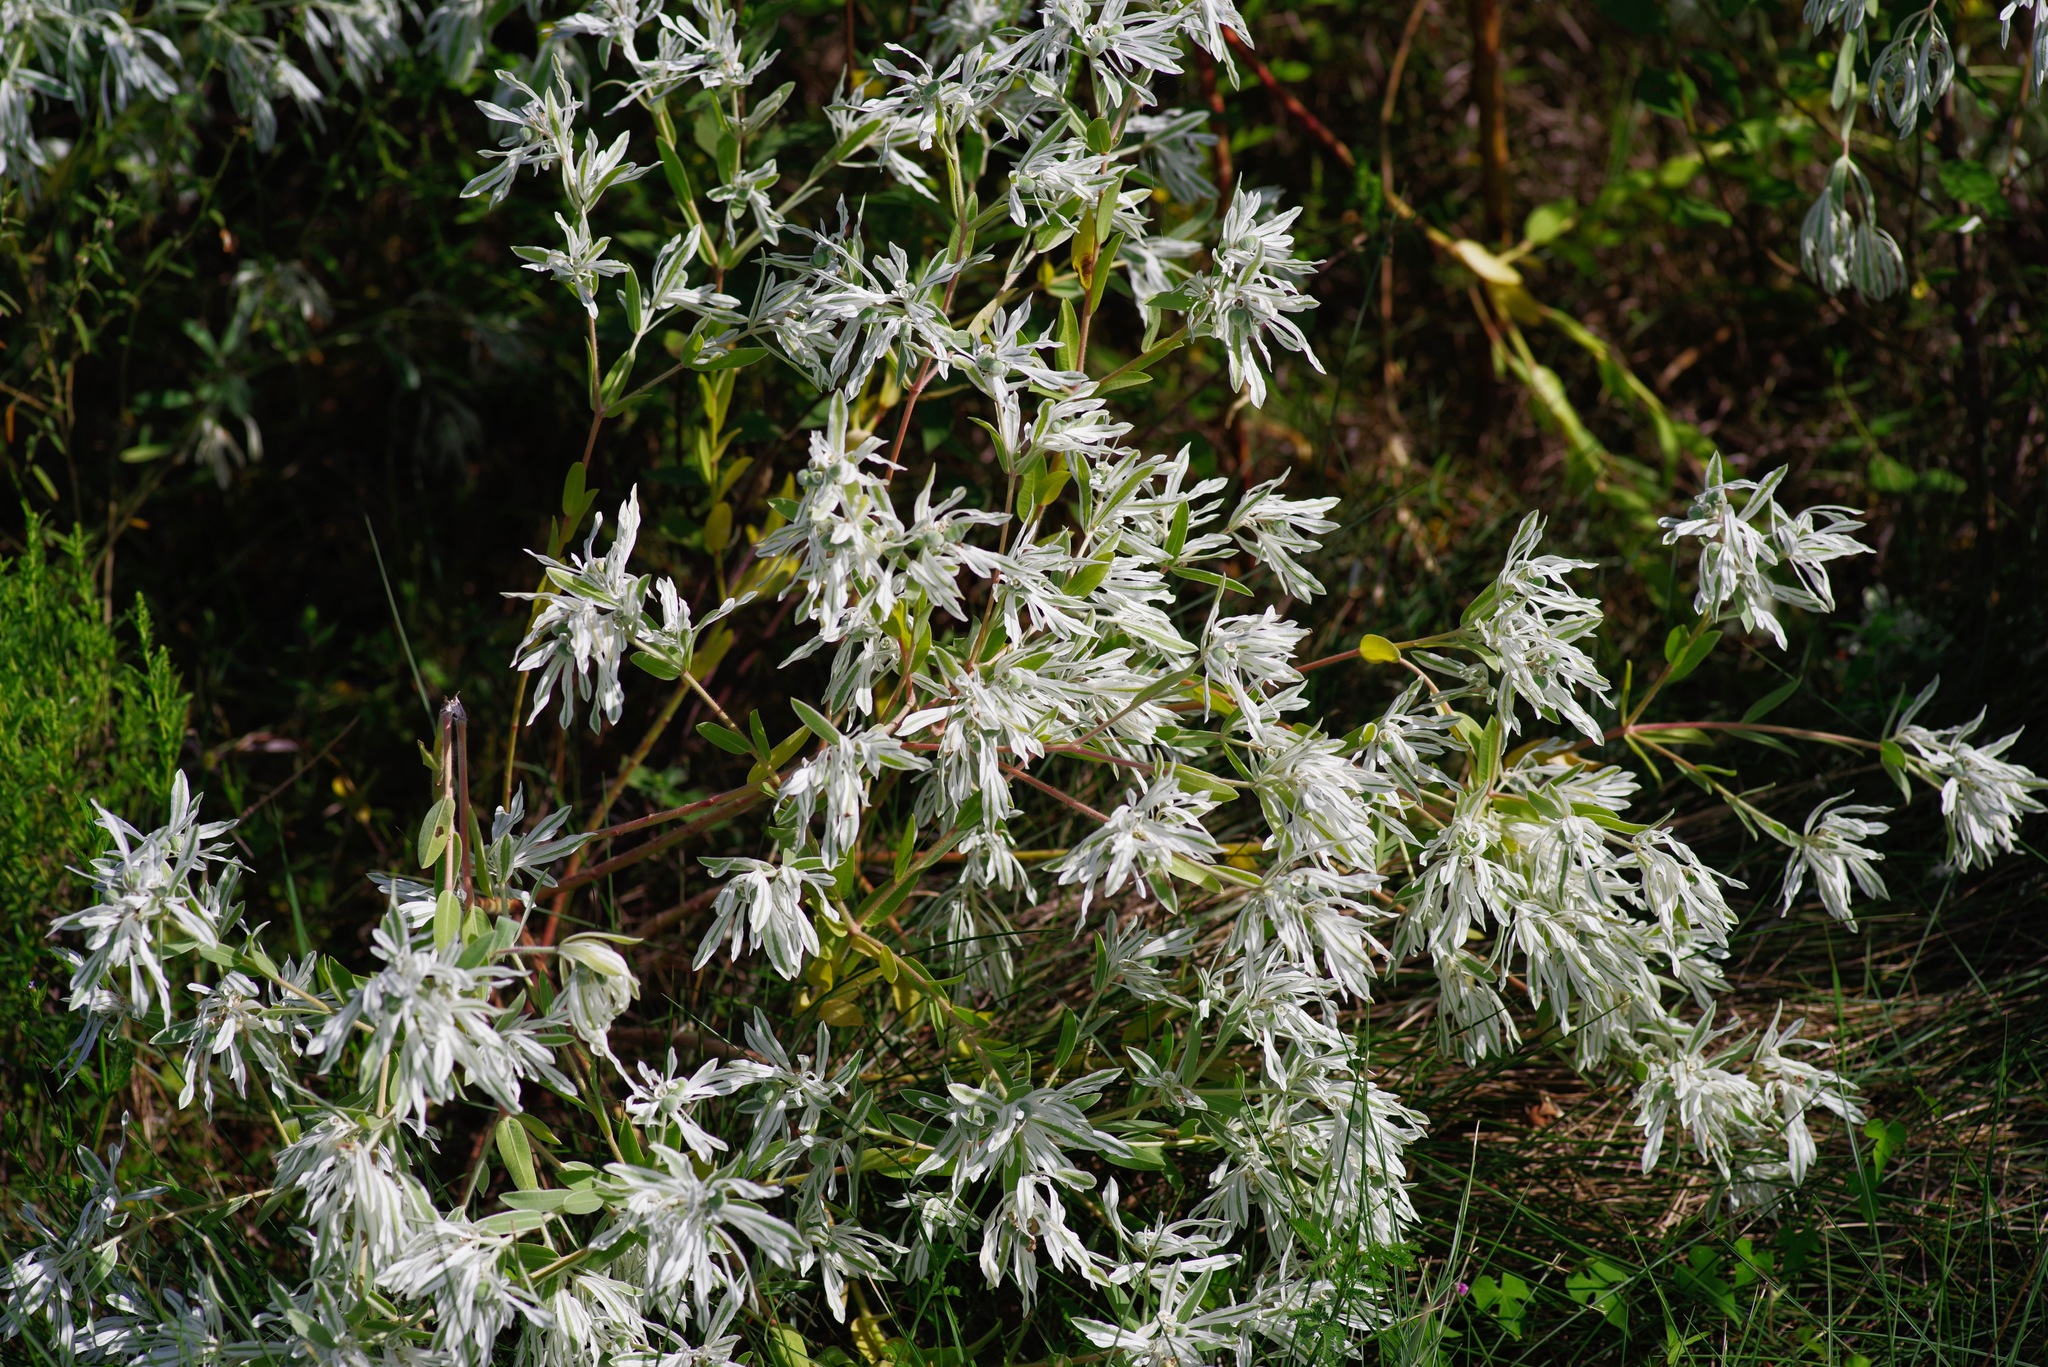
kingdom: Plantae
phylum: Tracheophyta
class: Magnoliopsida
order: Malpighiales
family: Euphorbiaceae
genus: Euphorbia
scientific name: Euphorbia bicolor
